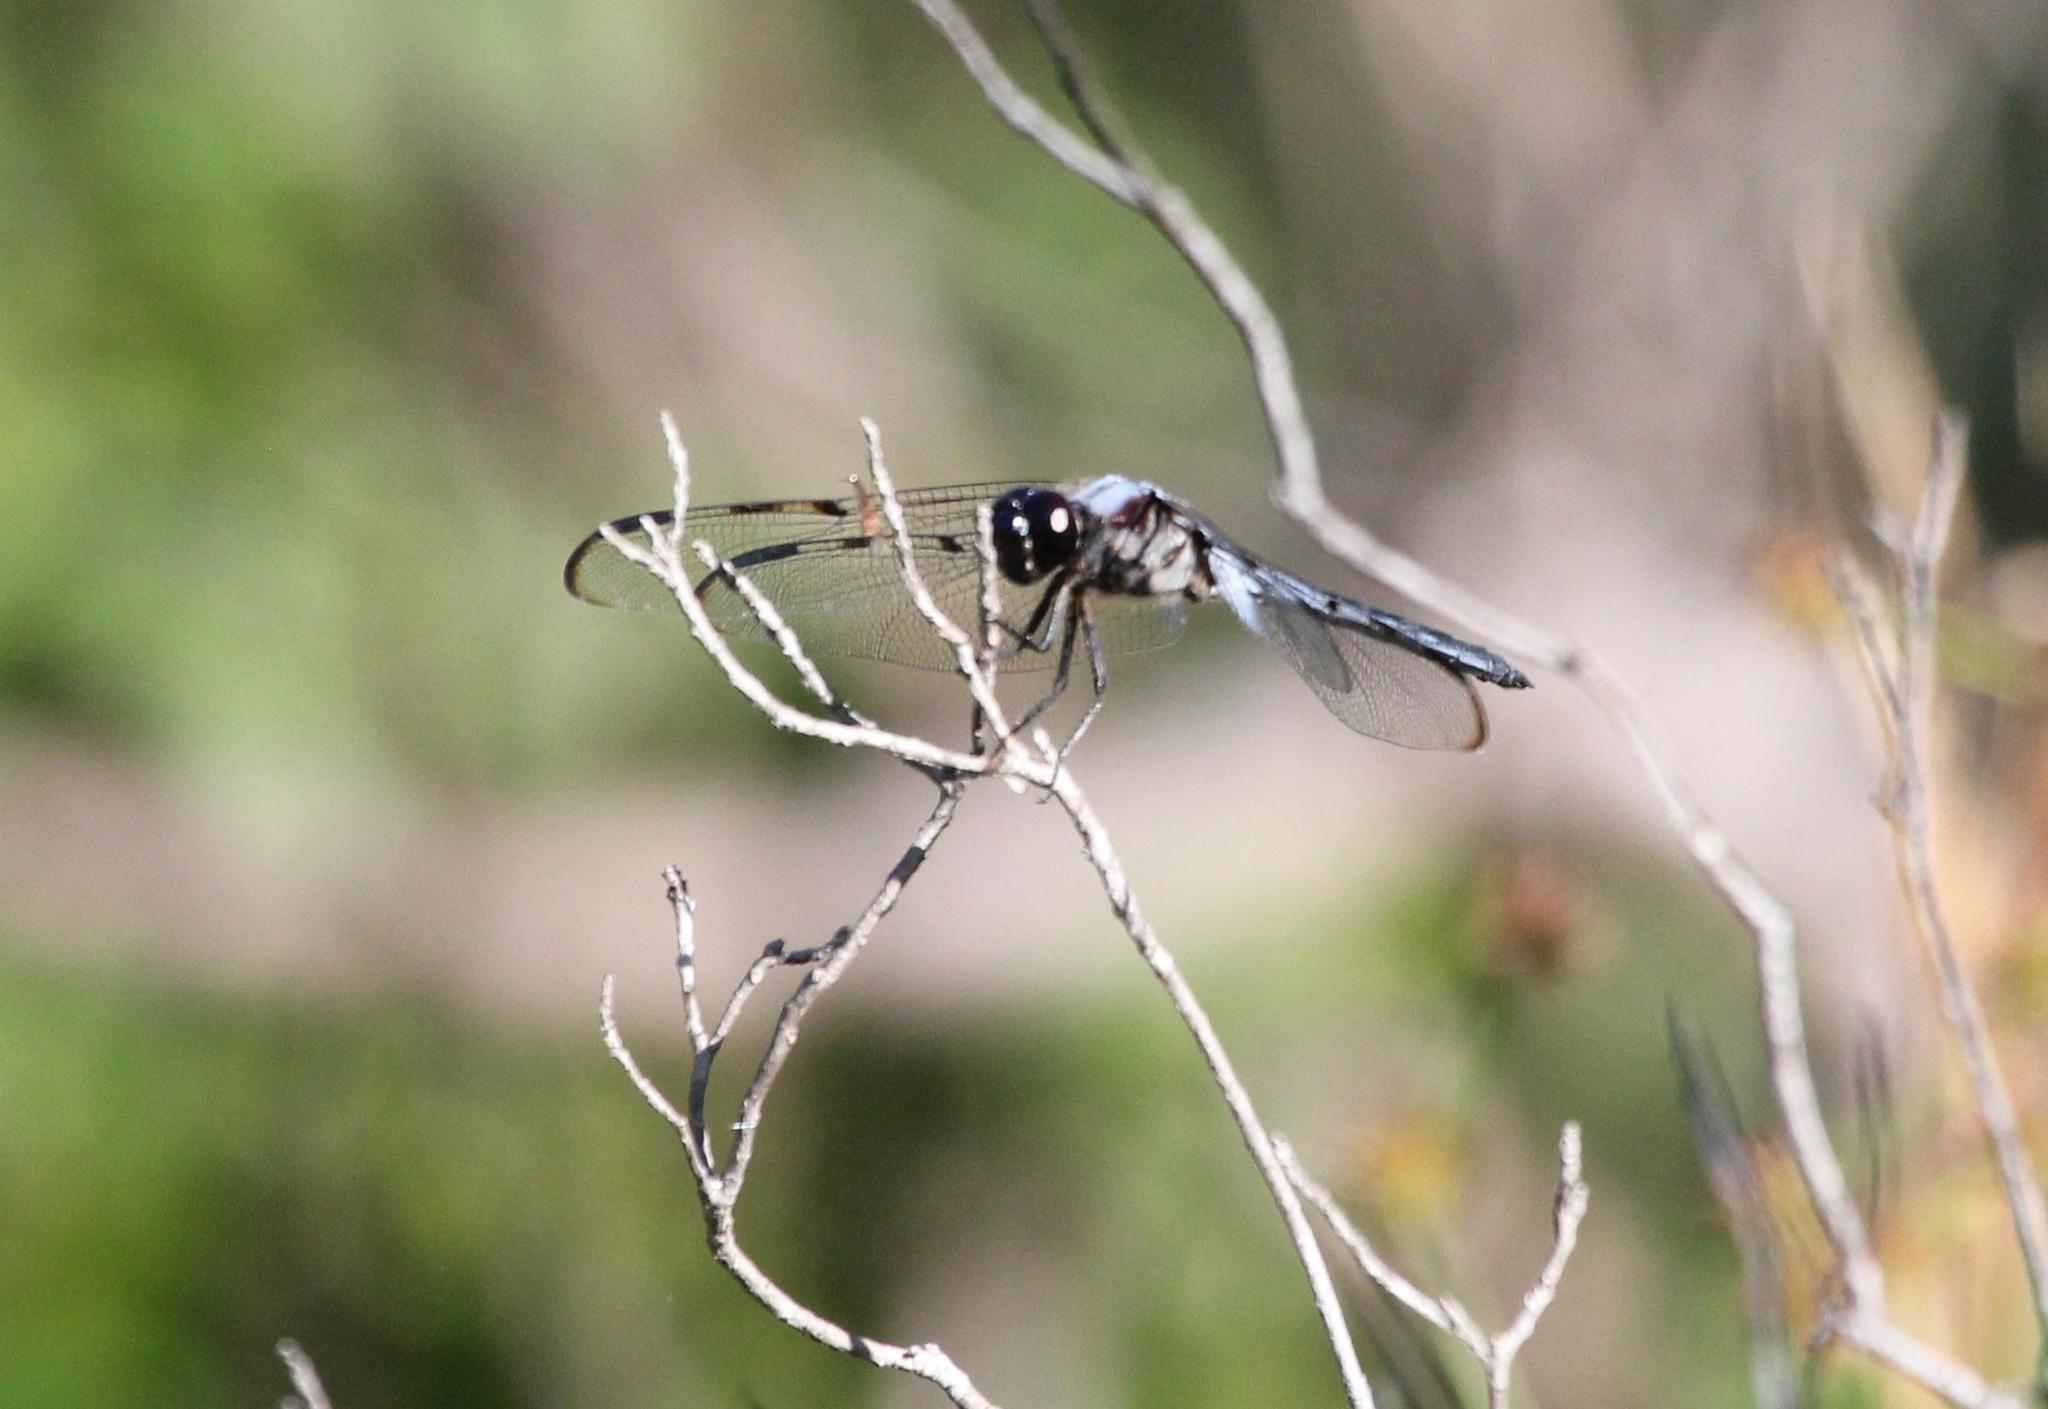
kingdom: Animalia
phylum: Arthropoda
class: Insecta
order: Odonata
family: Libellulidae
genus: Libellula
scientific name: Libellula axilena
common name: Bar-winged skimmer
